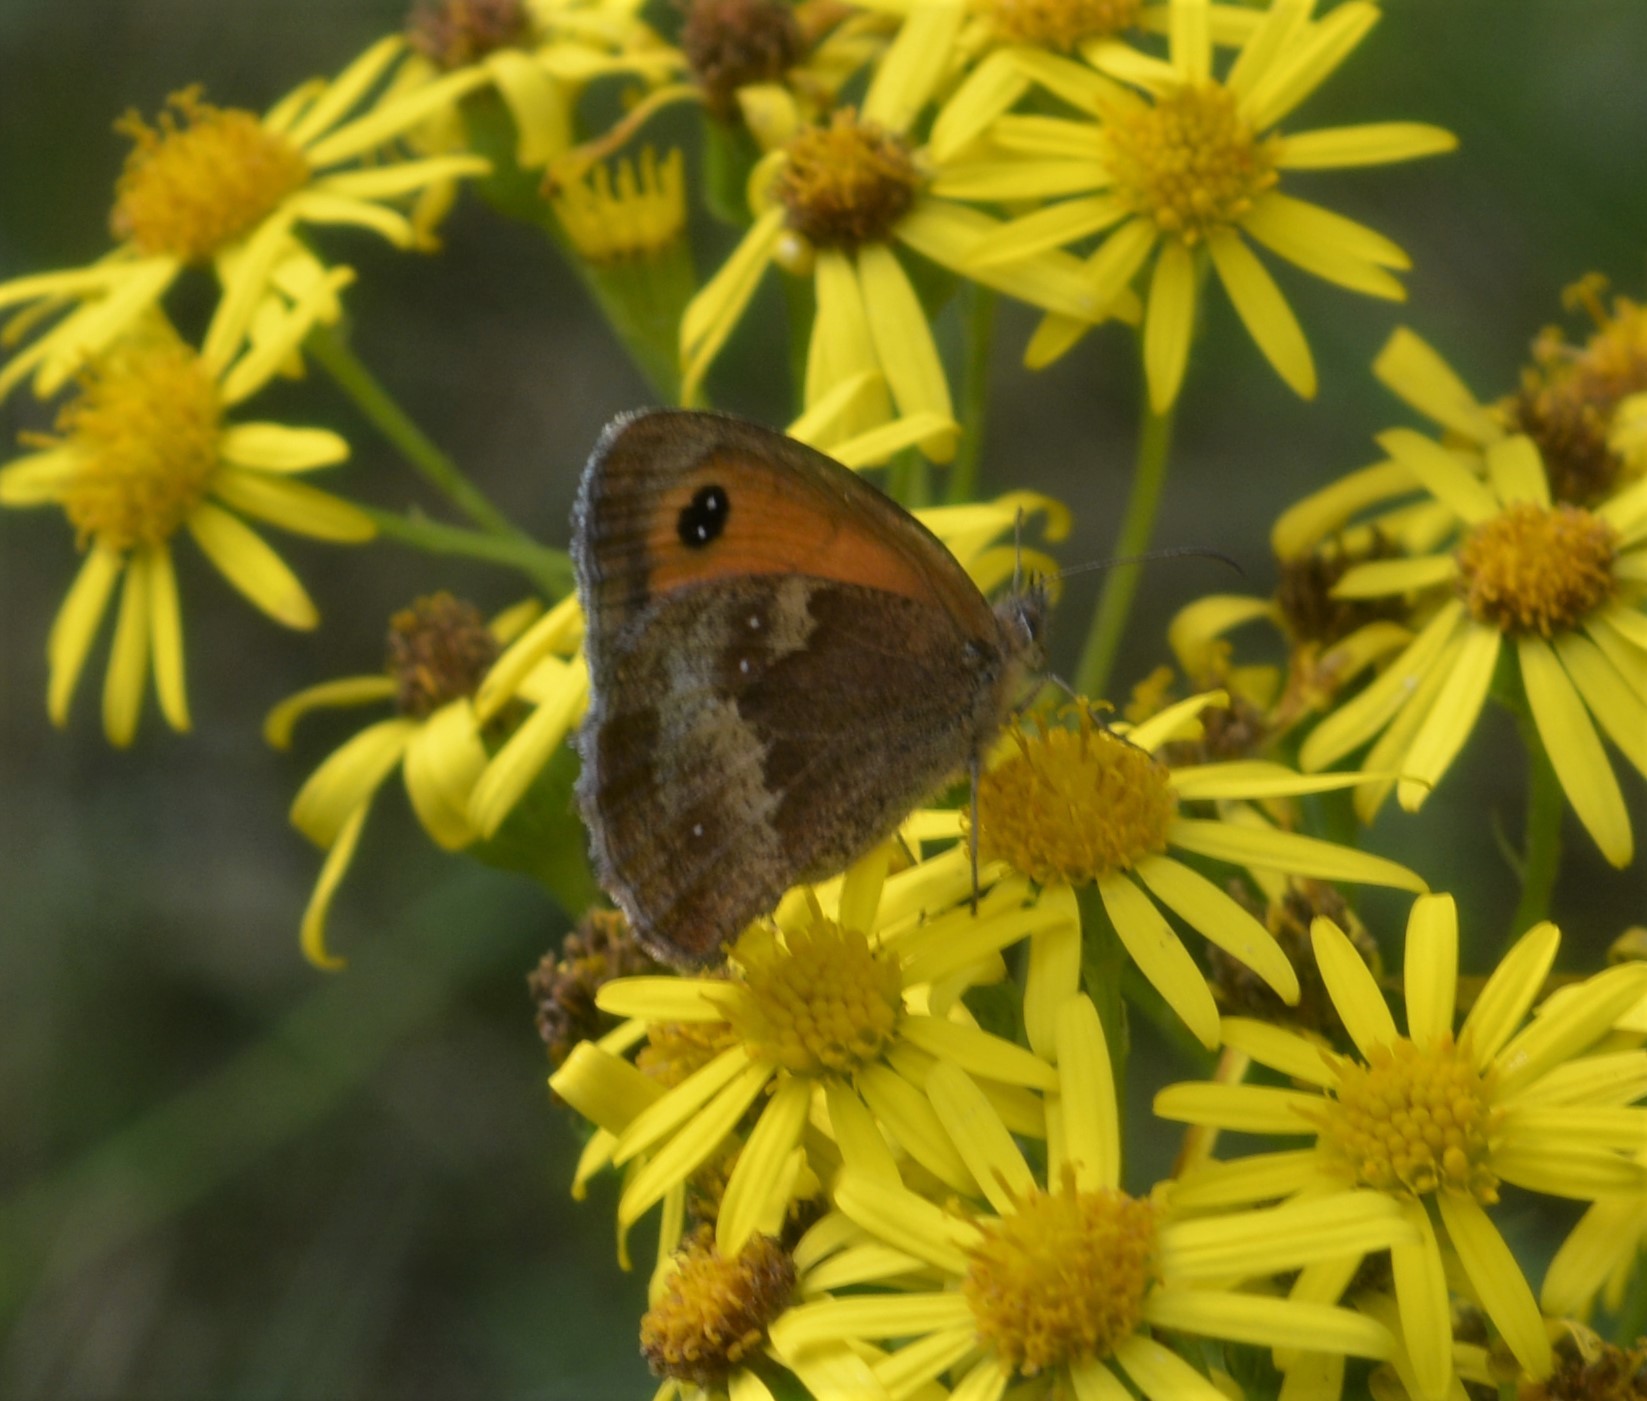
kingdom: Animalia
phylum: Arthropoda
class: Insecta
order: Lepidoptera
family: Nymphalidae
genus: Pyronia
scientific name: Pyronia tithonus
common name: Gatekeeper
